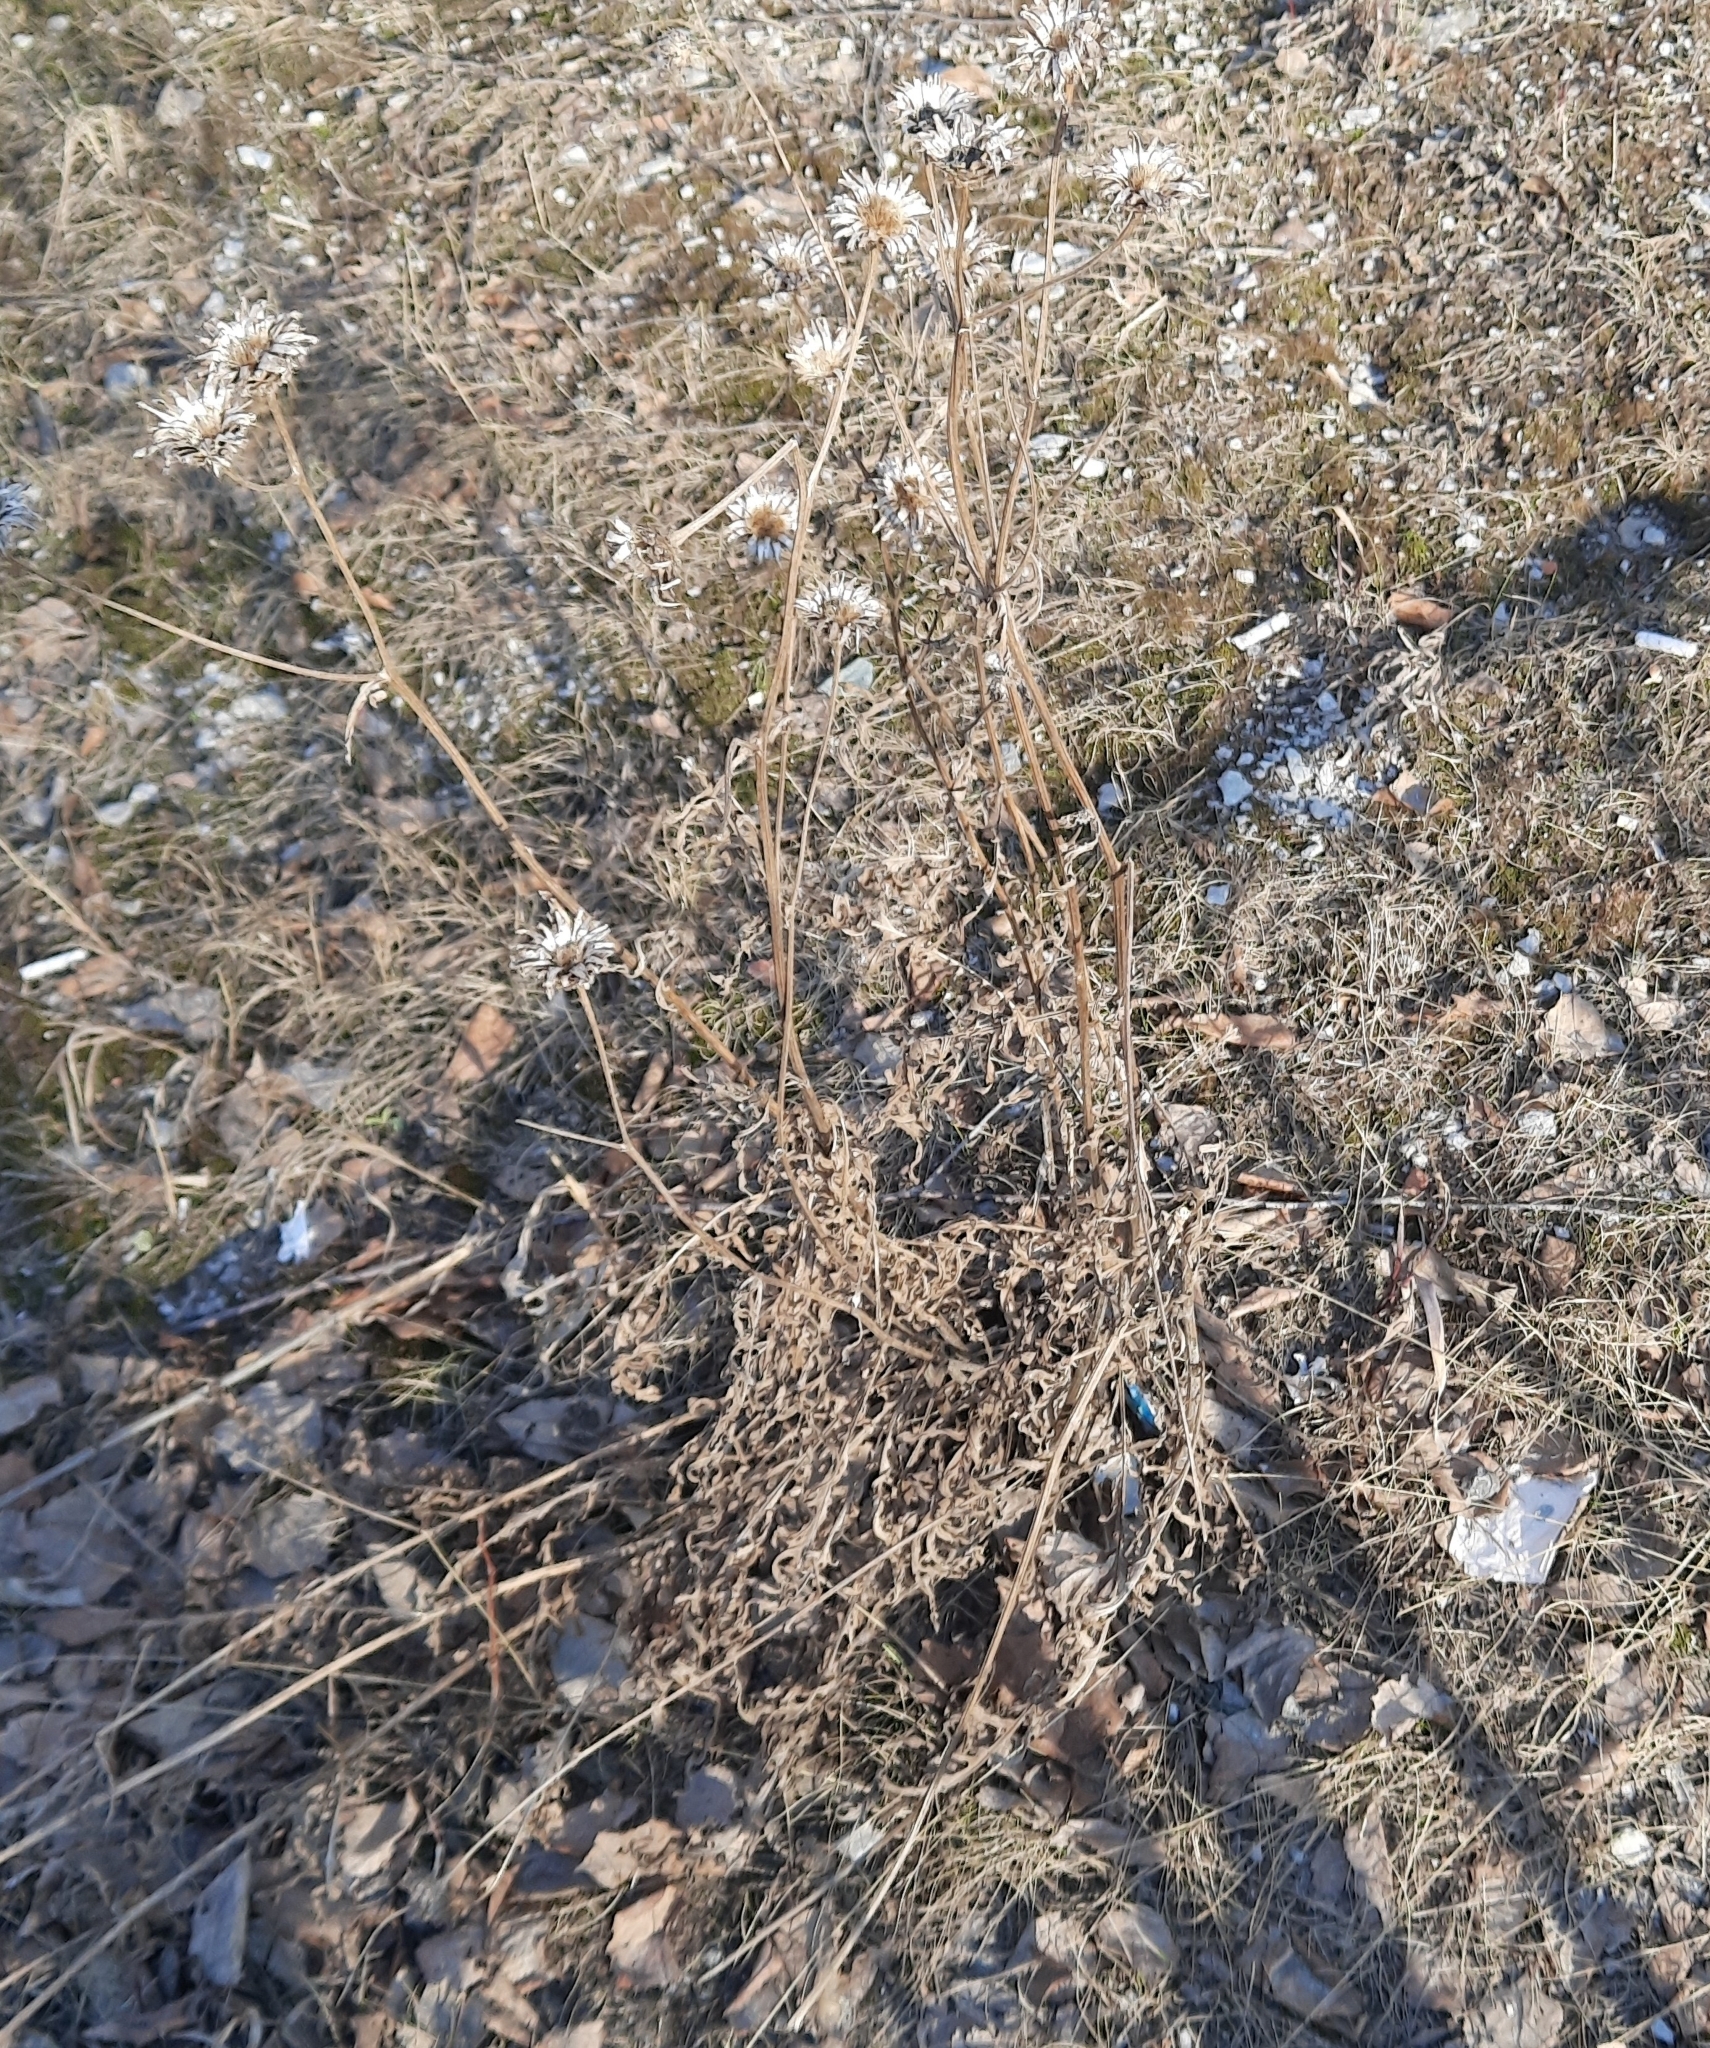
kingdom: Plantae
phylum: Tracheophyta
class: Magnoliopsida
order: Asterales
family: Asteraceae
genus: Centaurea
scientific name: Centaurea scabiosa
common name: Greater knapweed
